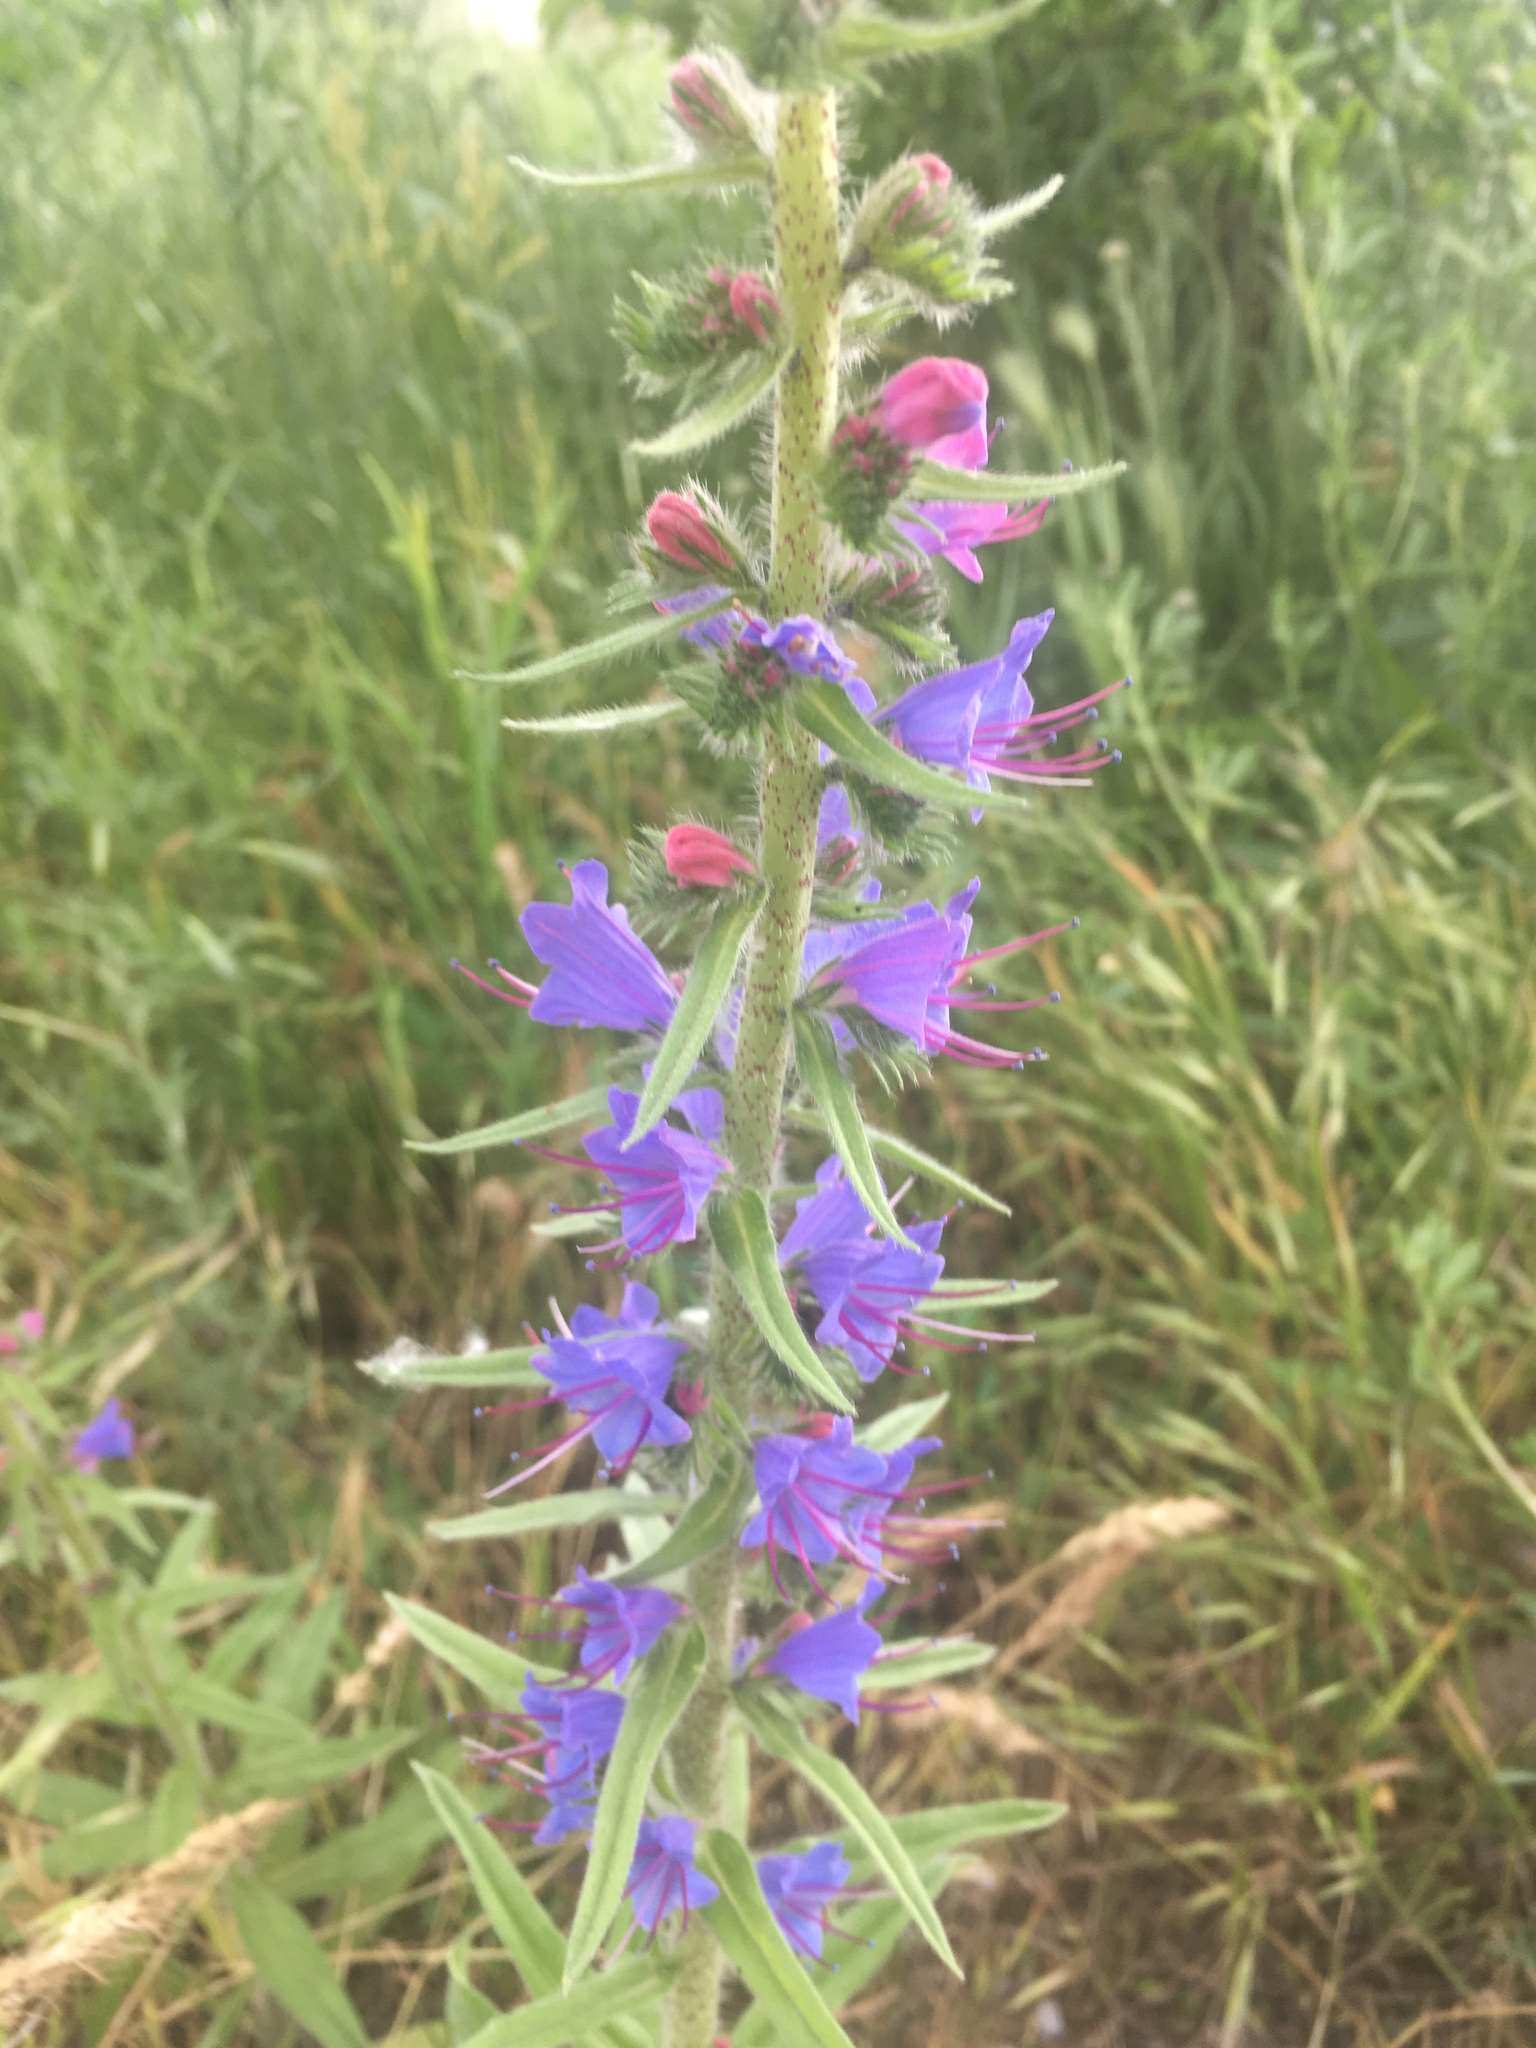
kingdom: Plantae
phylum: Tracheophyta
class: Magnoliopsida
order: Boraginales
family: Boraginaceae
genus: Echium
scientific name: Echium vulgare
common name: Common viper's bugloss
